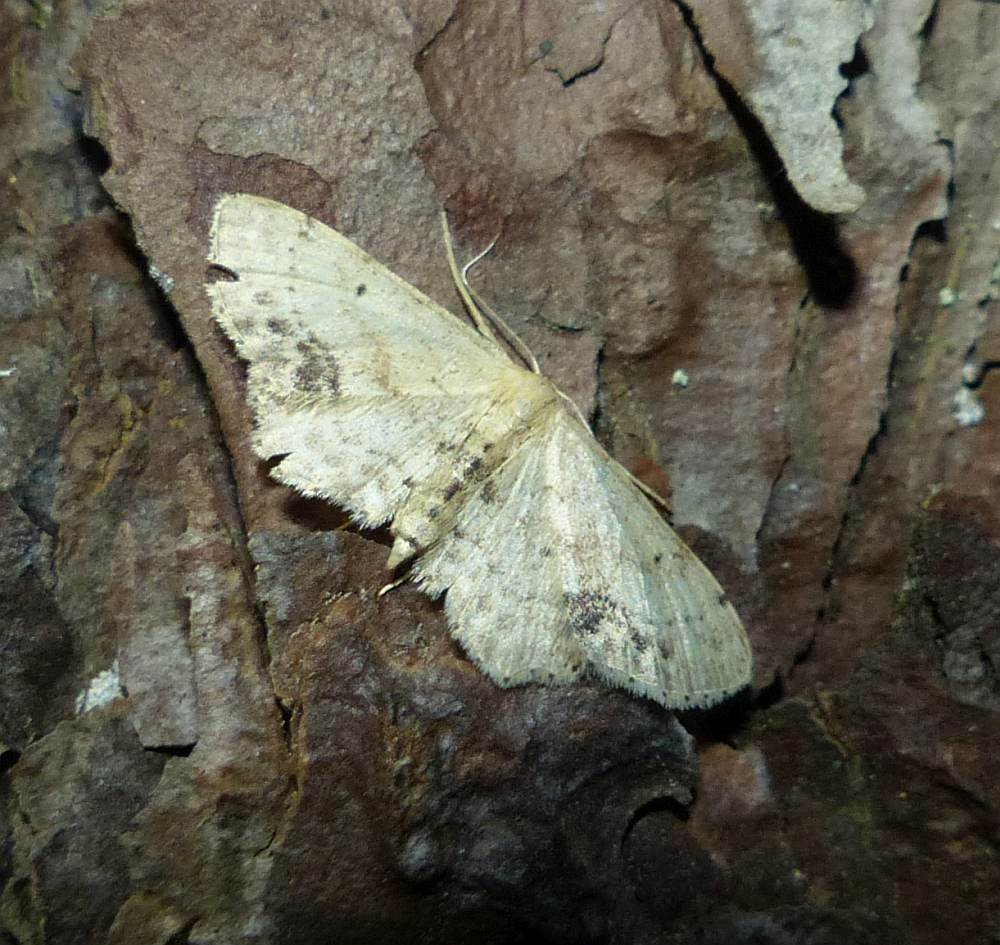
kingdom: Animalia
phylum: Arthropoda
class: Insecta
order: Lepidoptera
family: Geometridae
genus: Idaea
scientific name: Idaea dimidiata
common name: Single-dotted wave
